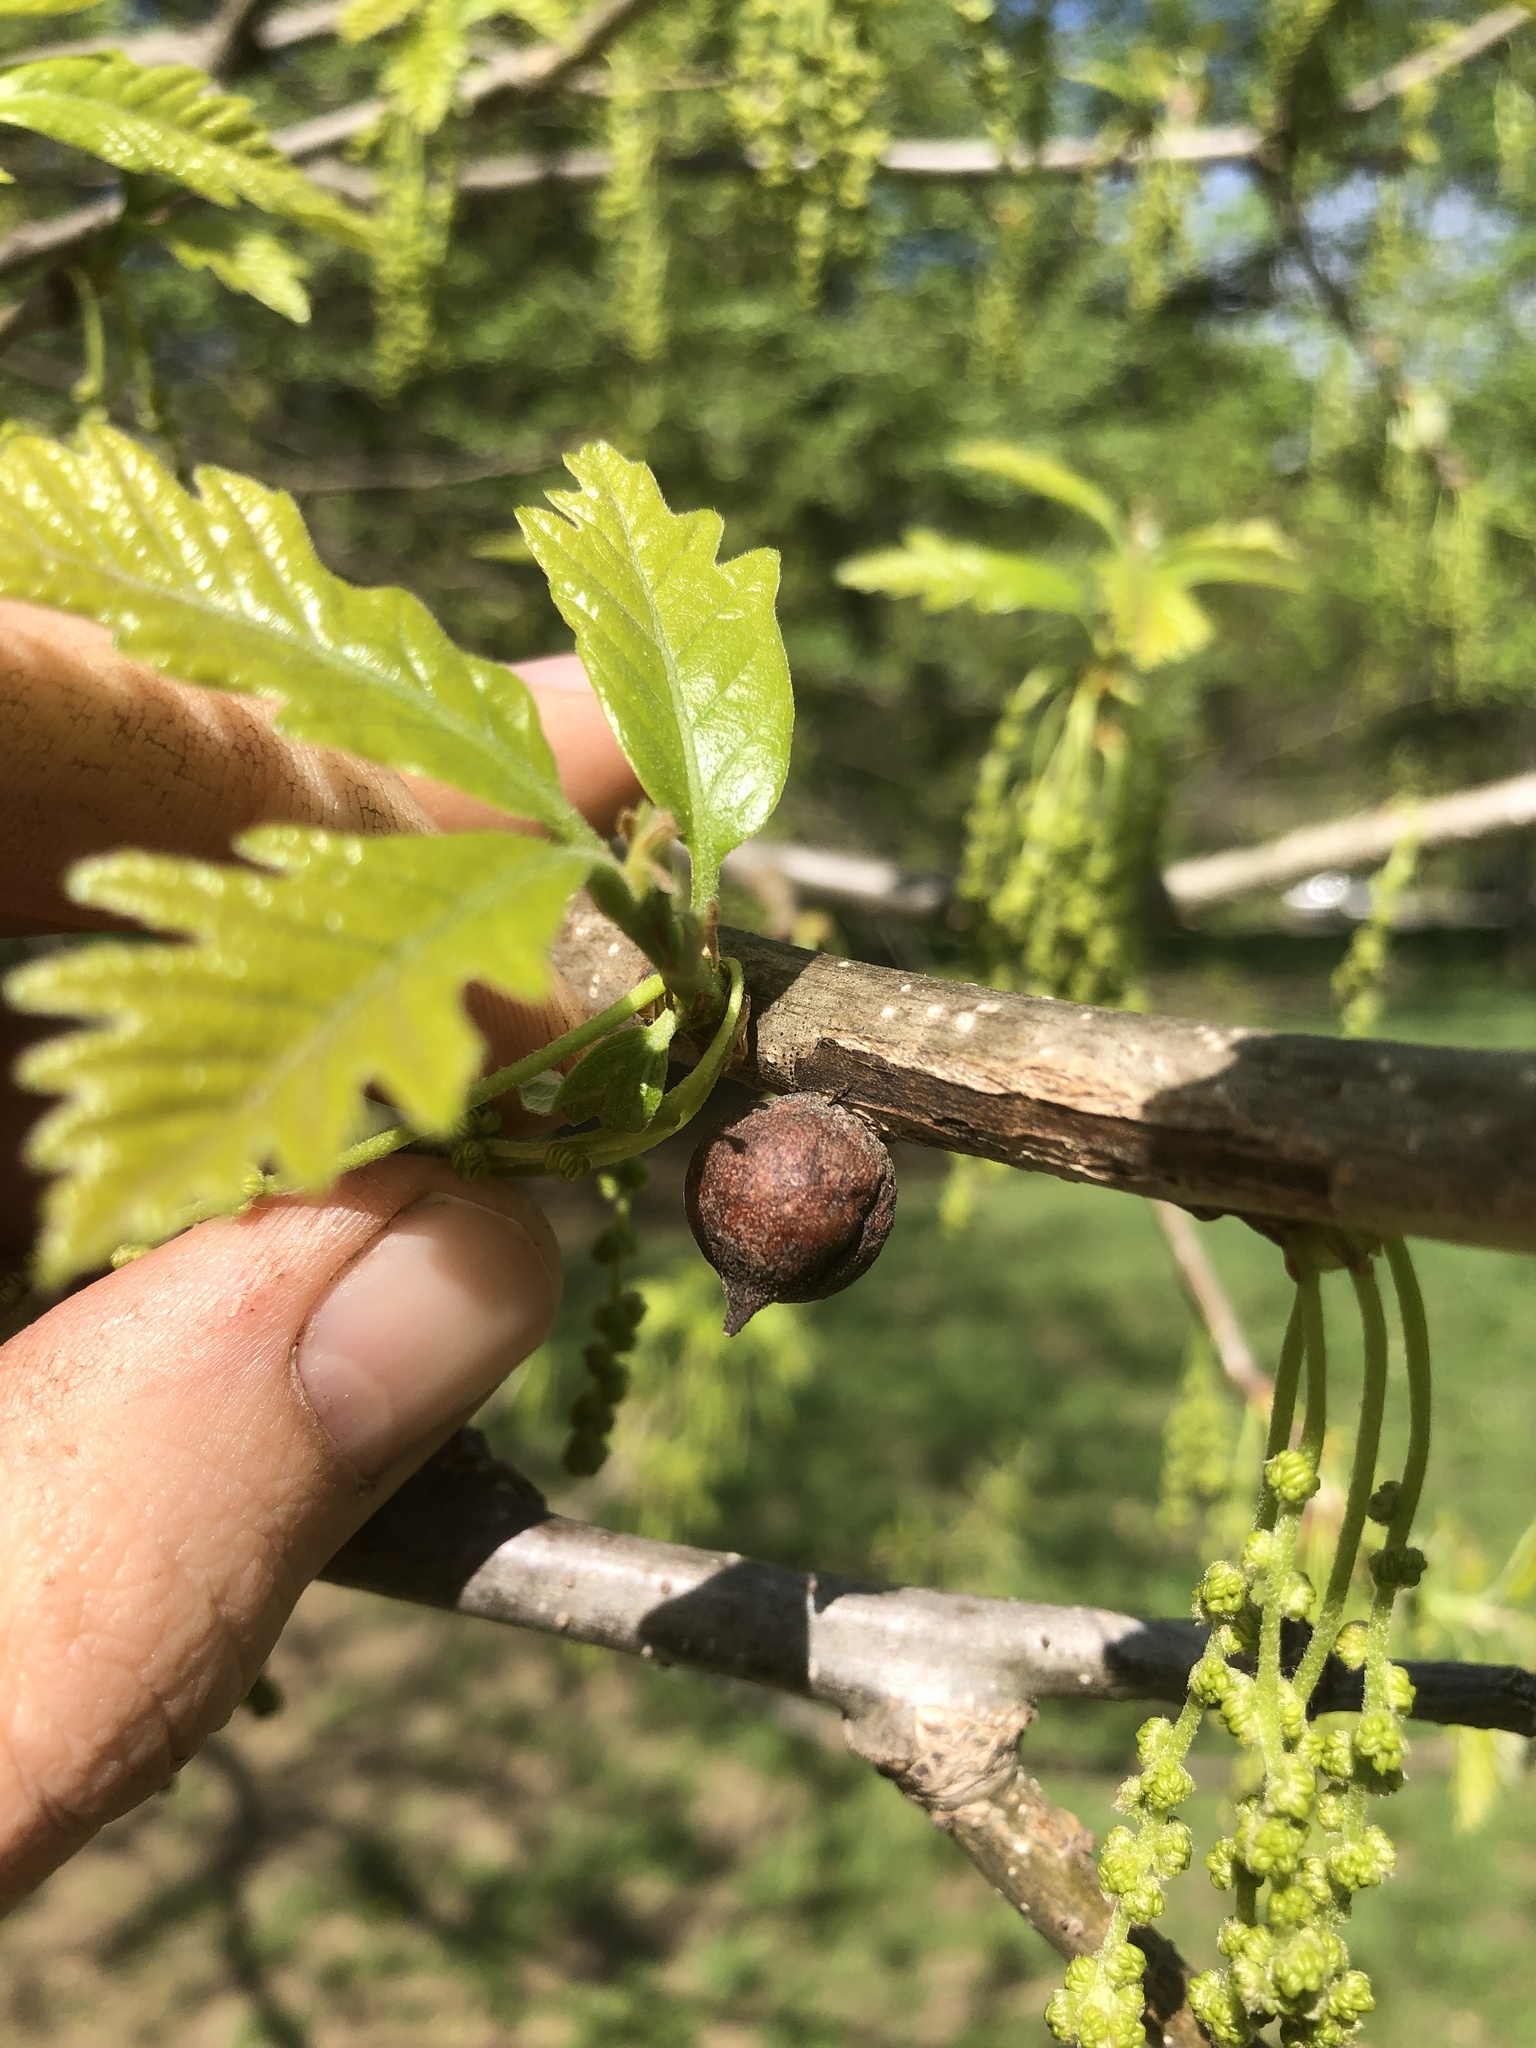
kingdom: Animalia
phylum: Arthropoda
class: Insecta
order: Hymenoptera
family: Cynipidae
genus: Disholcaspis
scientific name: Disholcaspis
